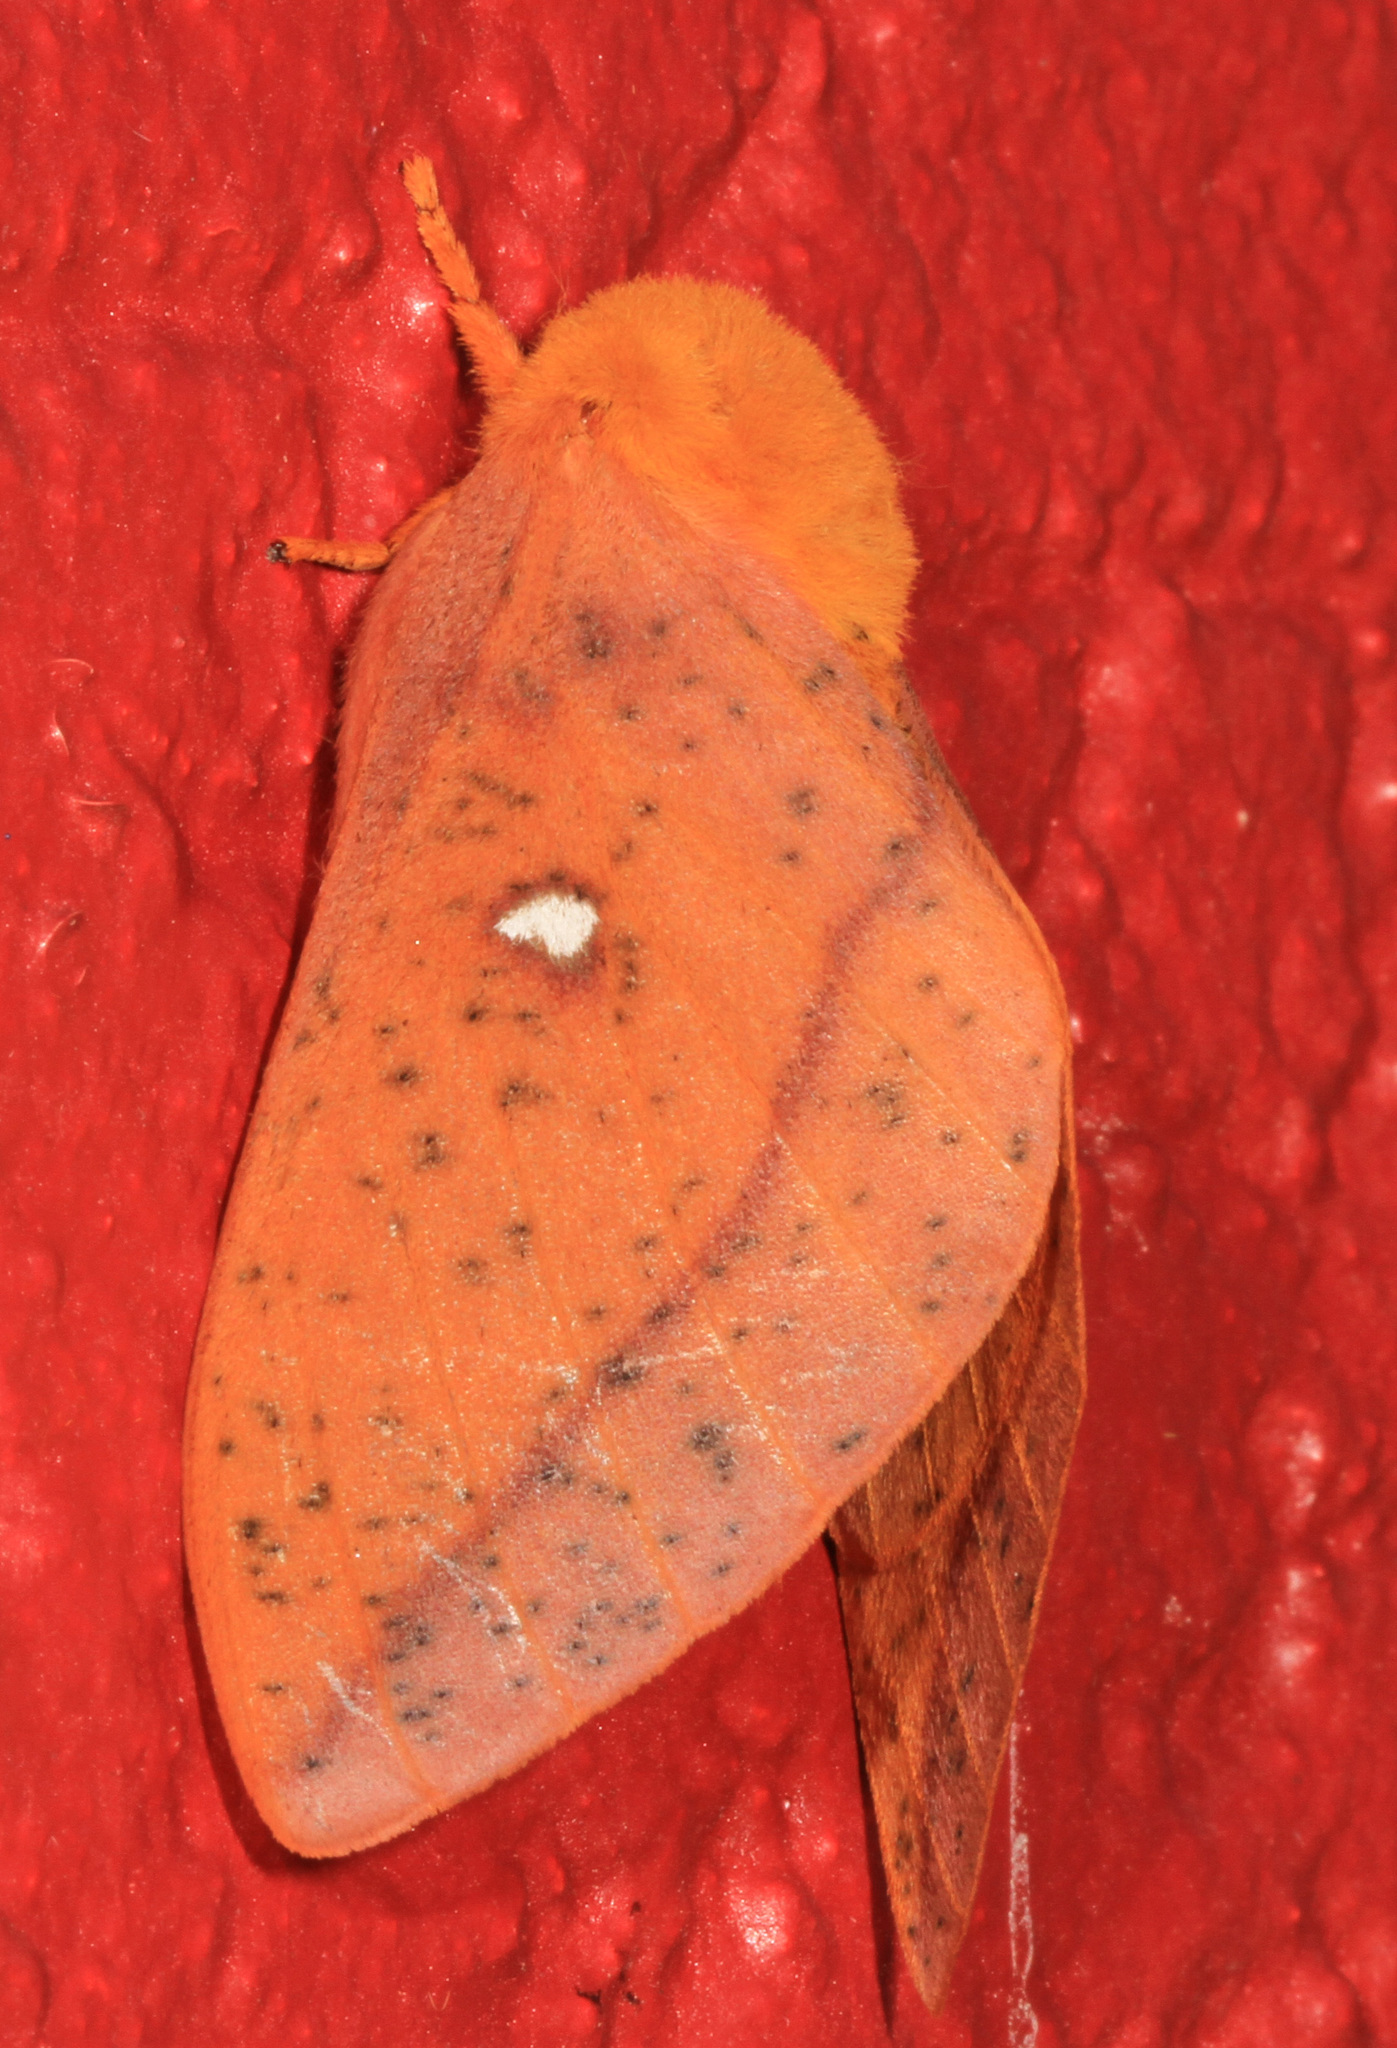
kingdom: Animalia
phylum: Arthropoda
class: Insecta
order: Lepidoptera
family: Saturniidae
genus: Anisota
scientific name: Anisota stigma
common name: Spiny oakworm moth
